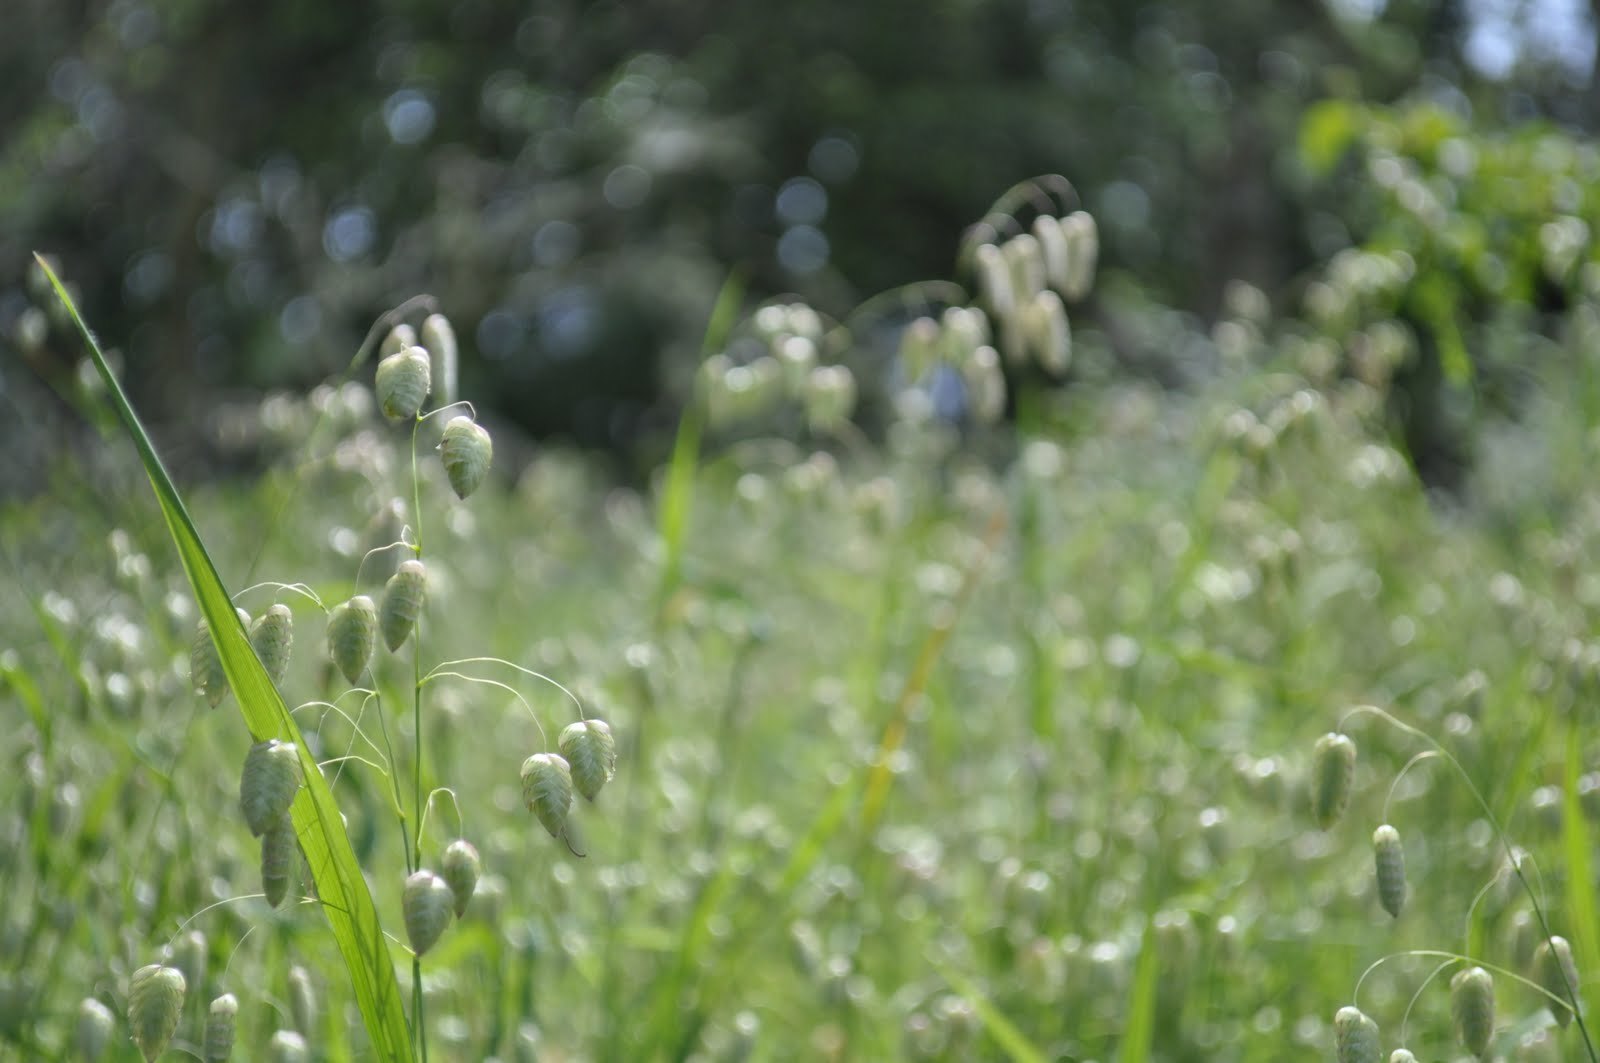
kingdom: Plantae
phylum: Tracheophyta
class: Liliopsida
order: Poales
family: Poaceae
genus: Briza
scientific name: Briza maxima
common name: Big quakinggrass
